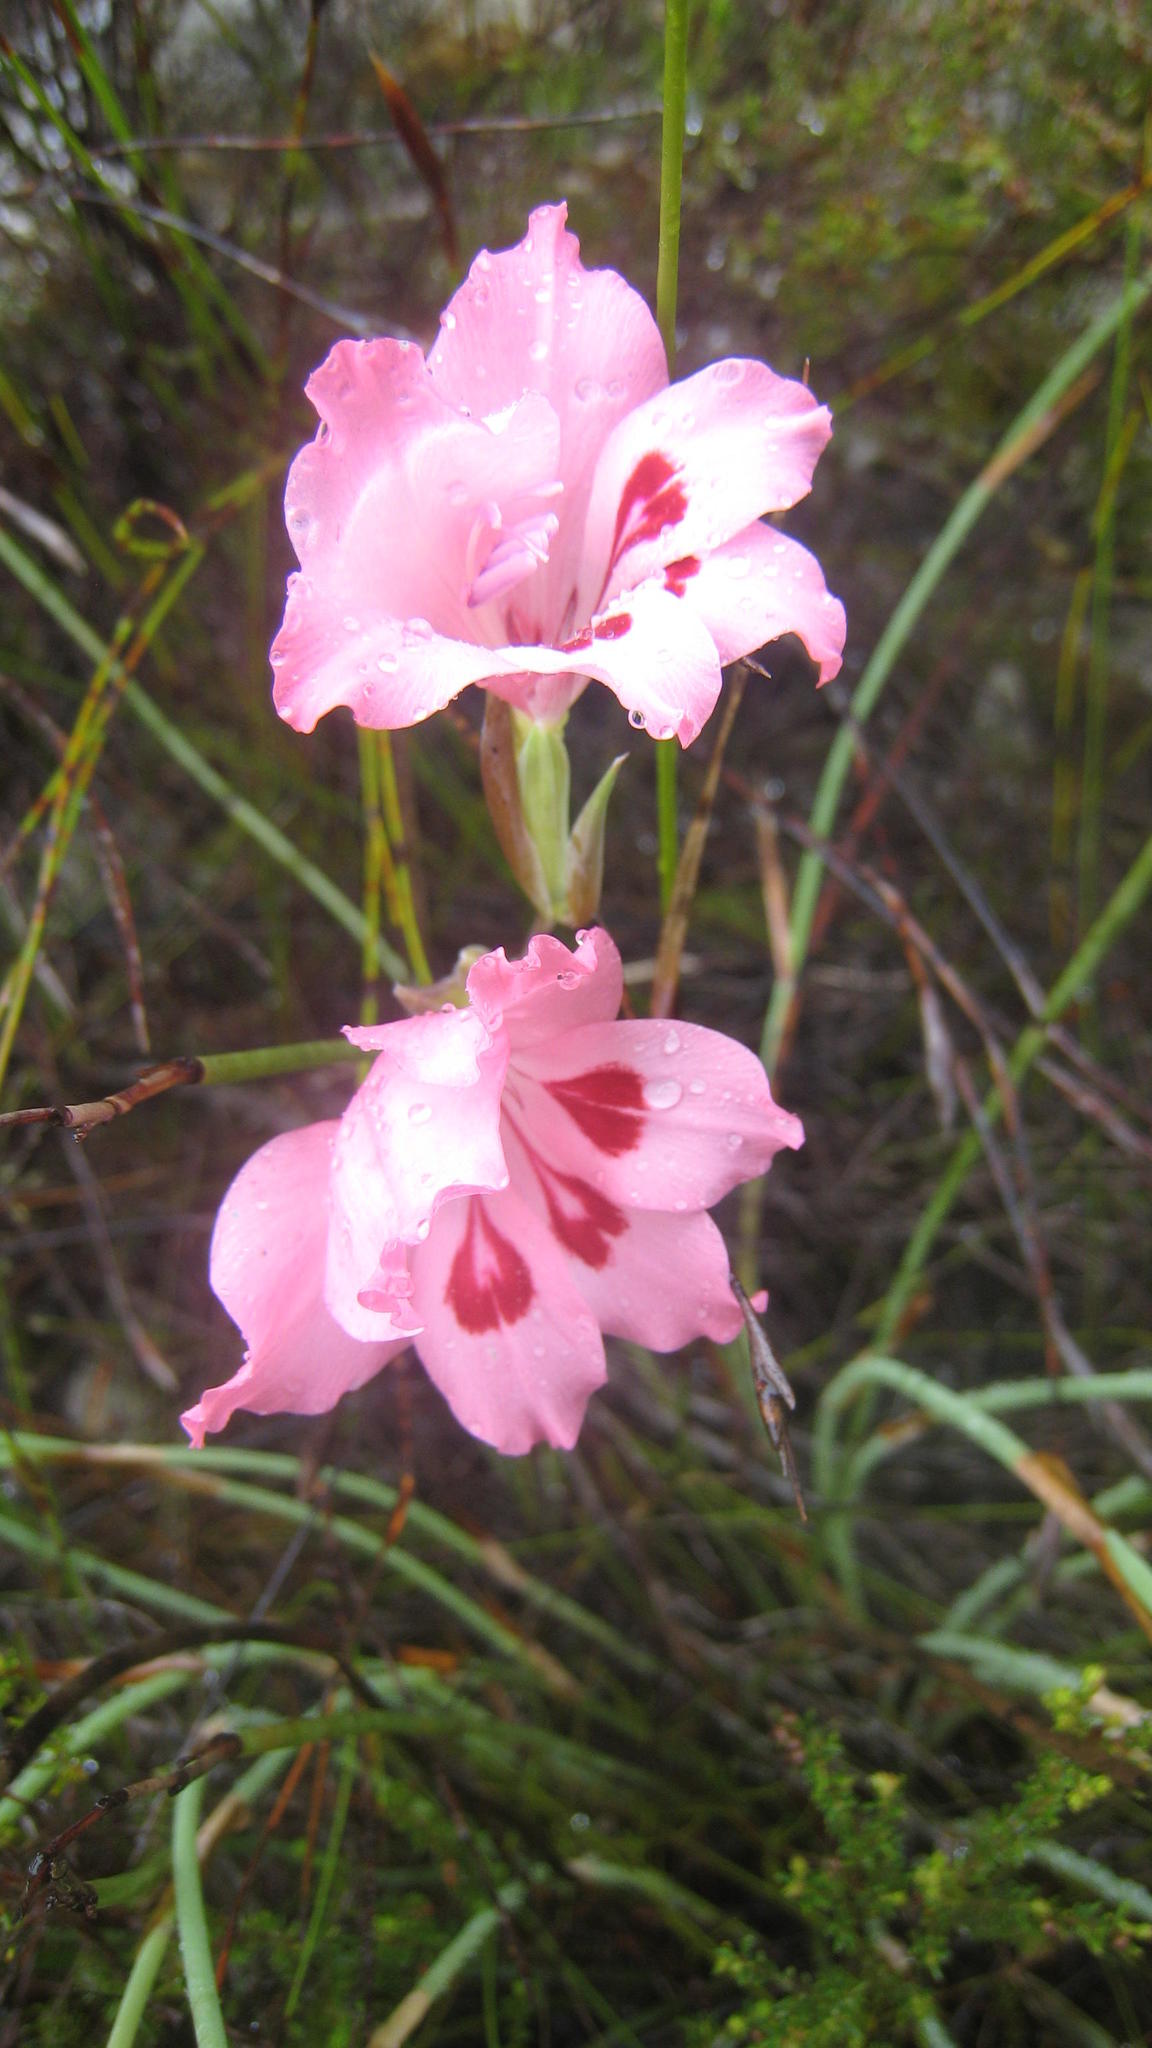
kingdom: Plantae
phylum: Tracheophyta
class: Liliopsida
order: Asparagales
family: Iridaceae
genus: Gladiolus
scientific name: Gladiolus carneus
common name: Painted-lady
